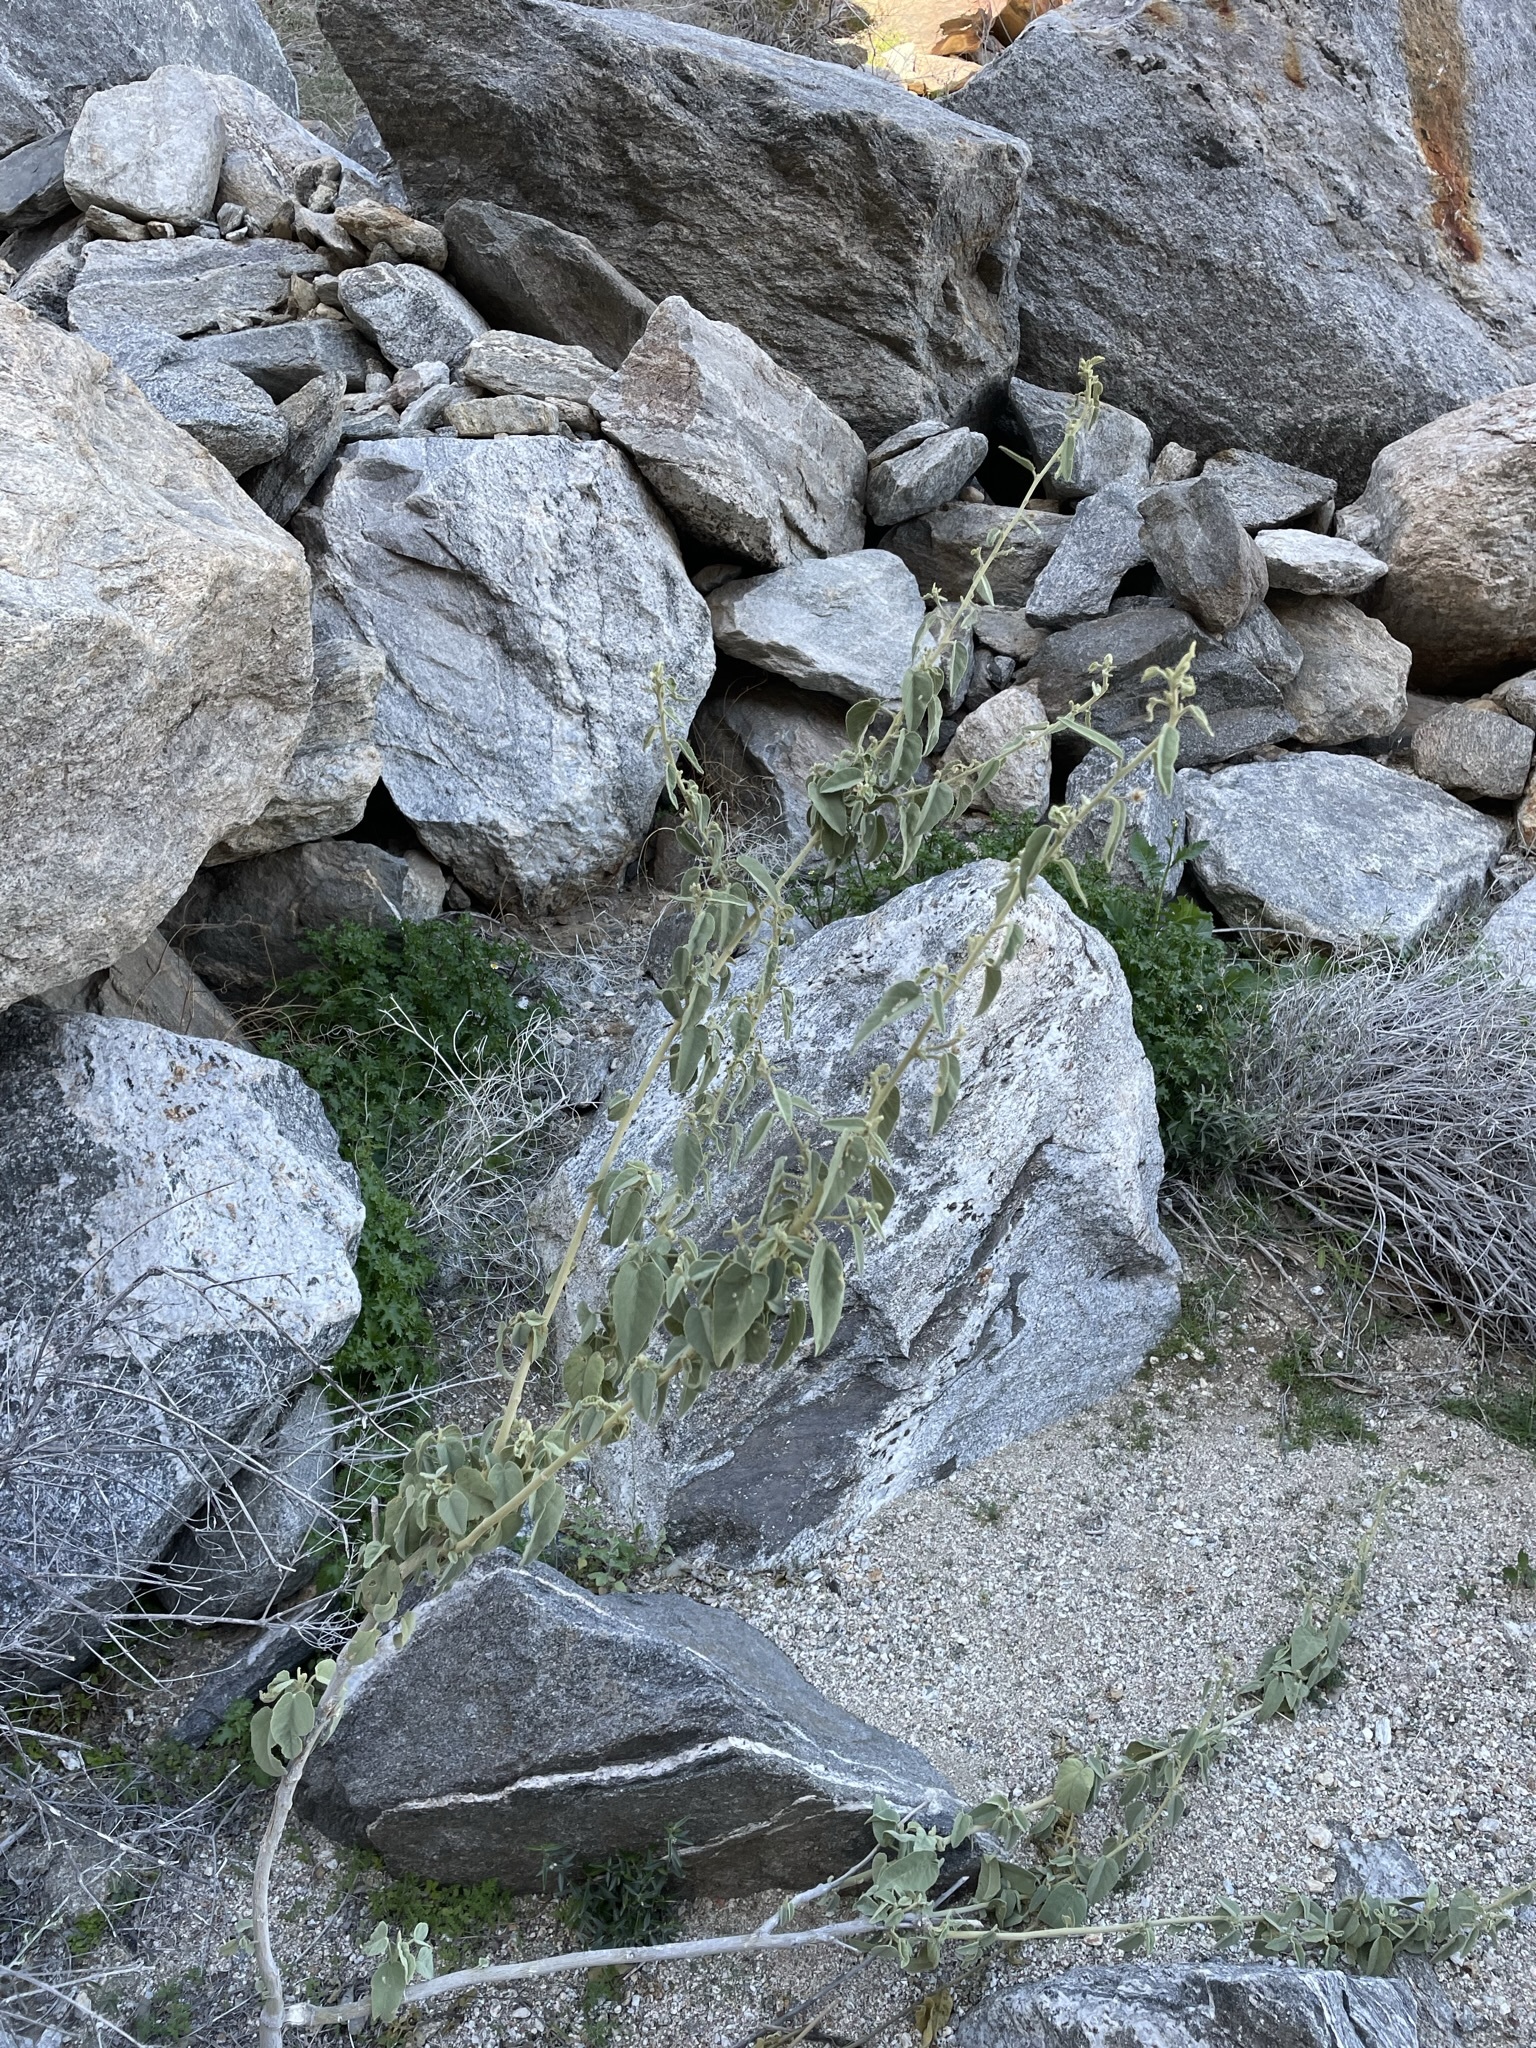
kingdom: Plantae
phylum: Tracheophyta
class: Magnoliopsida
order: Malvales
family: Malvaceae
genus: Horsfordia
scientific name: Horsfordia newberryi
